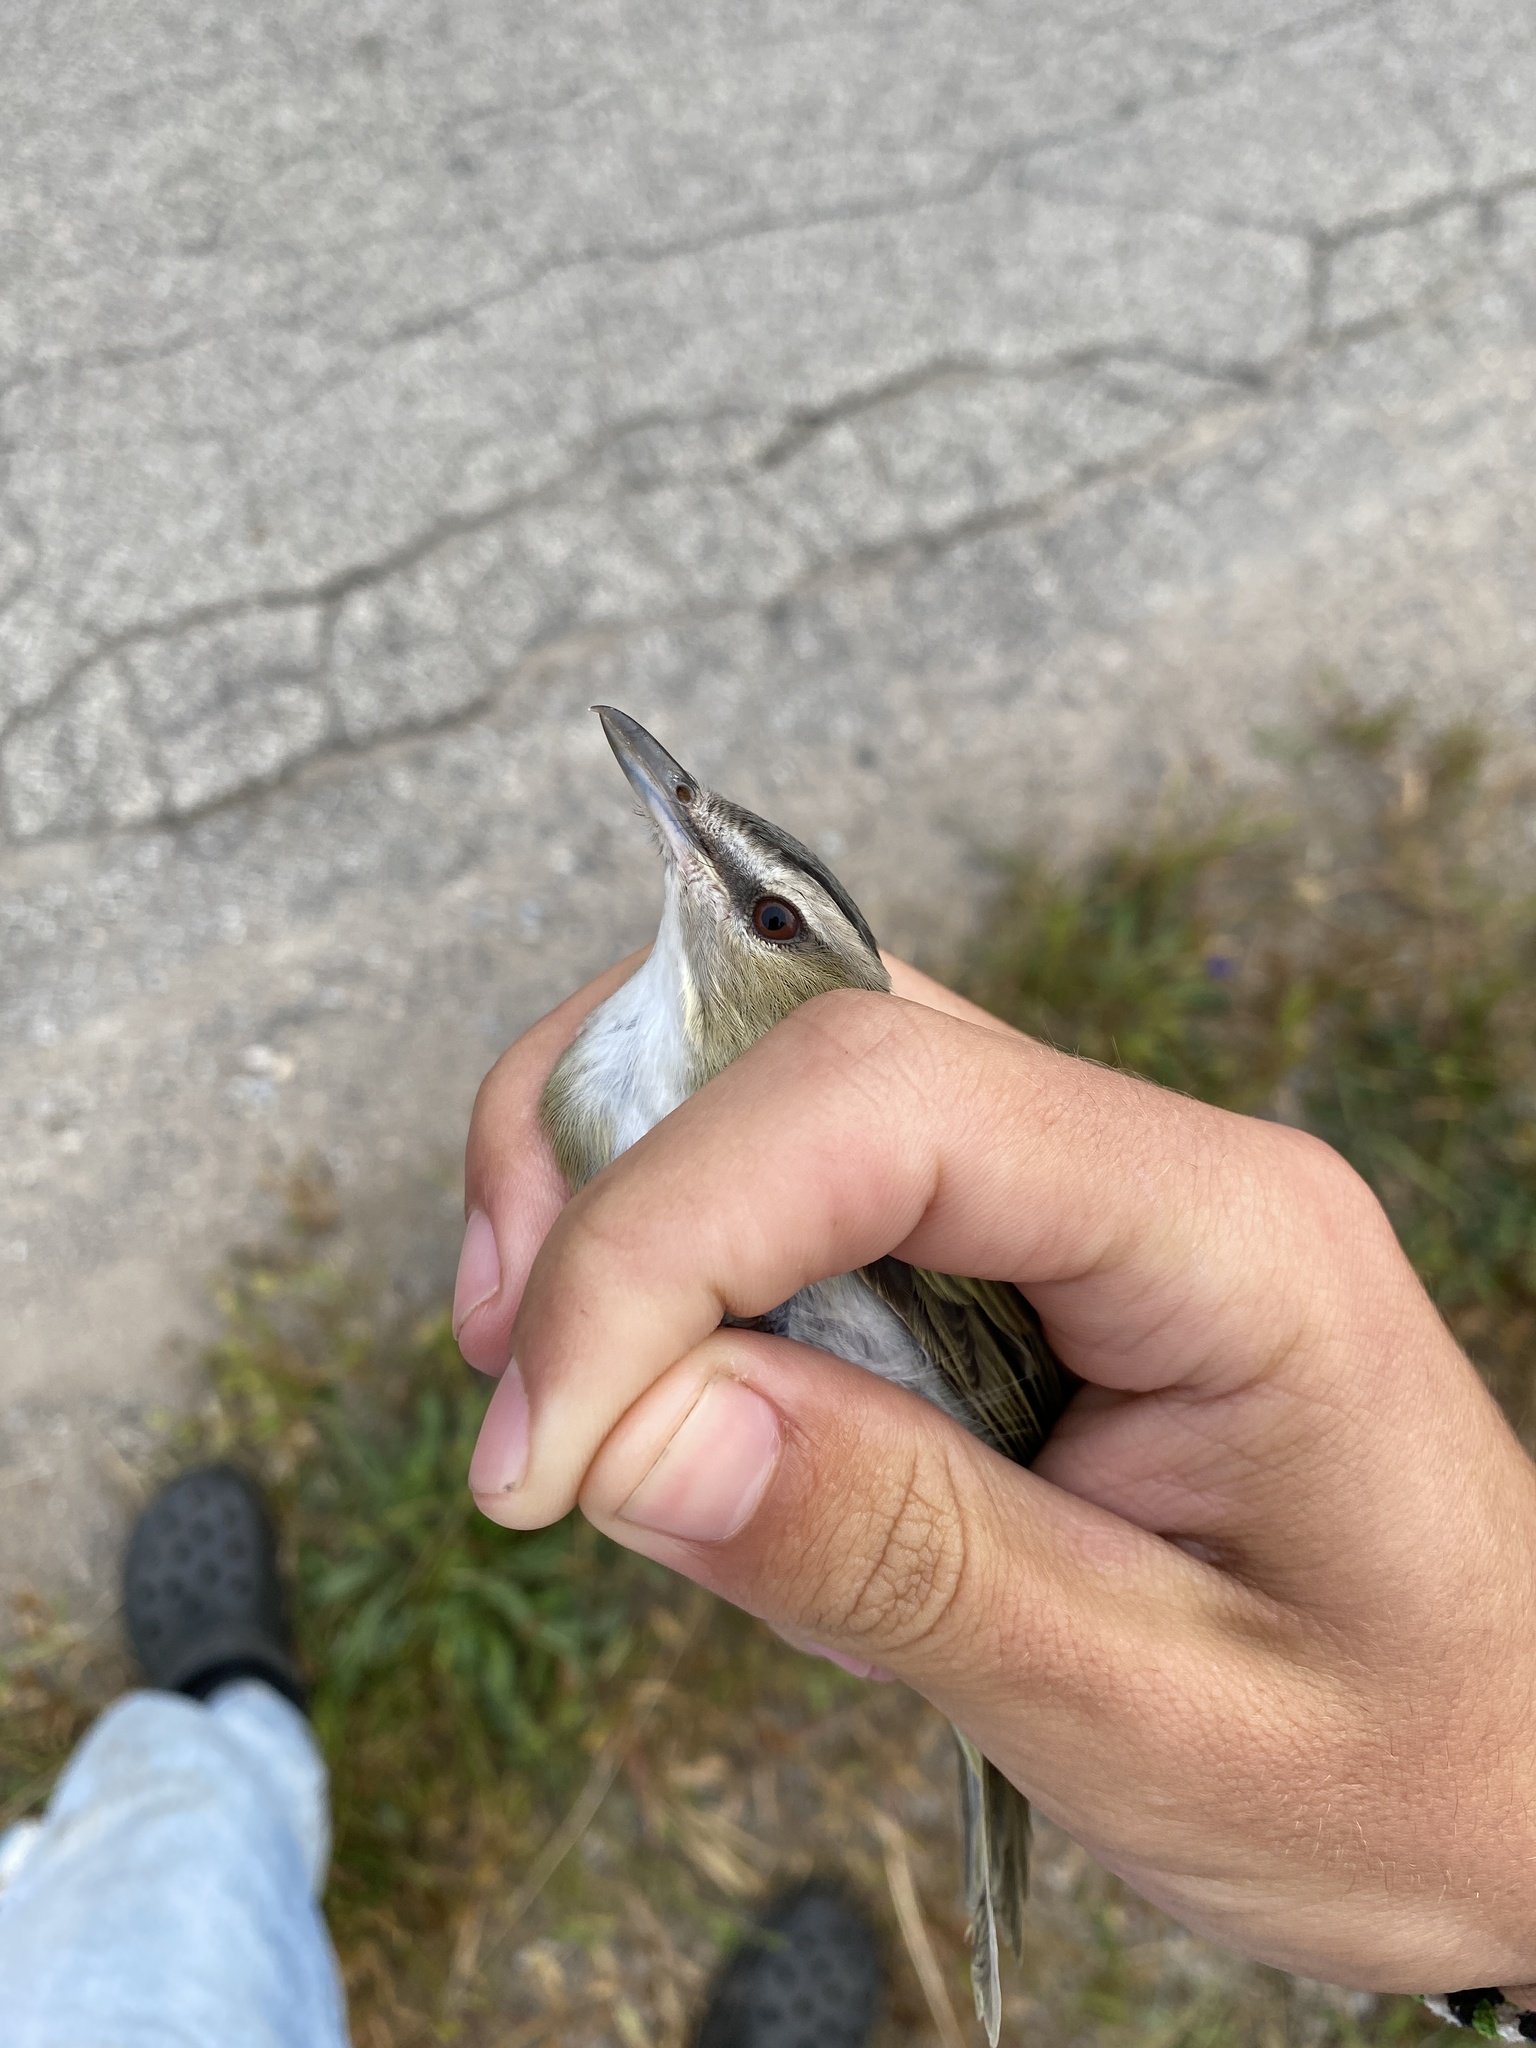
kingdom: Animalia
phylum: Chordata
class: Aves
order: Passeriformes
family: Vireonidae
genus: Vireo
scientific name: Vireo olivaceus
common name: Red-eyed vireo
